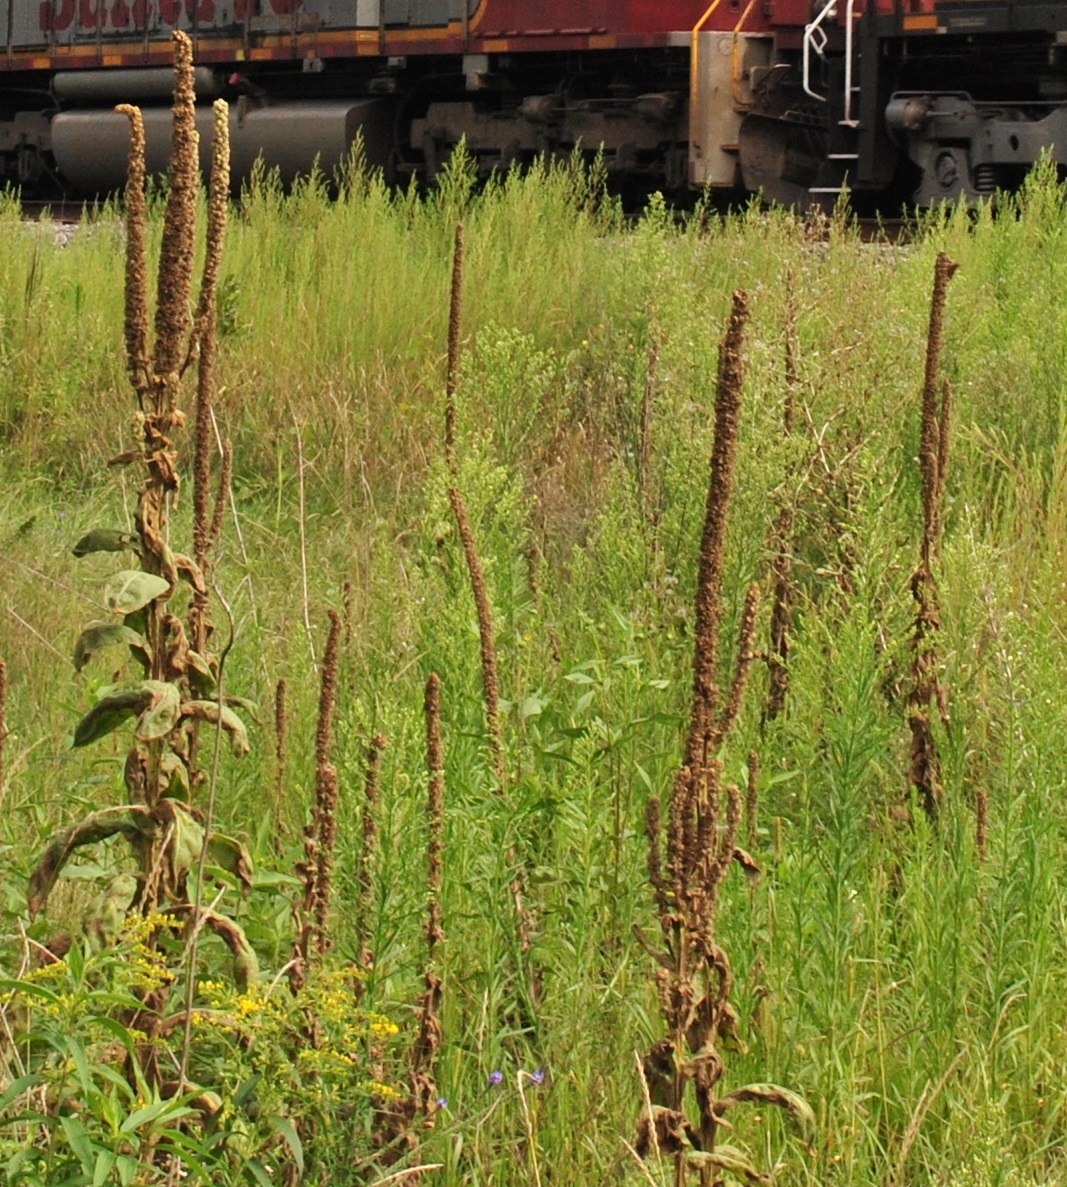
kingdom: Plantae
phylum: Tracheophyta
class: Magnoliopsida
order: Lamiales
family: Scrophulariaceae
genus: Verbascum
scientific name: Verbascum thapsus
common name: Common mullein
